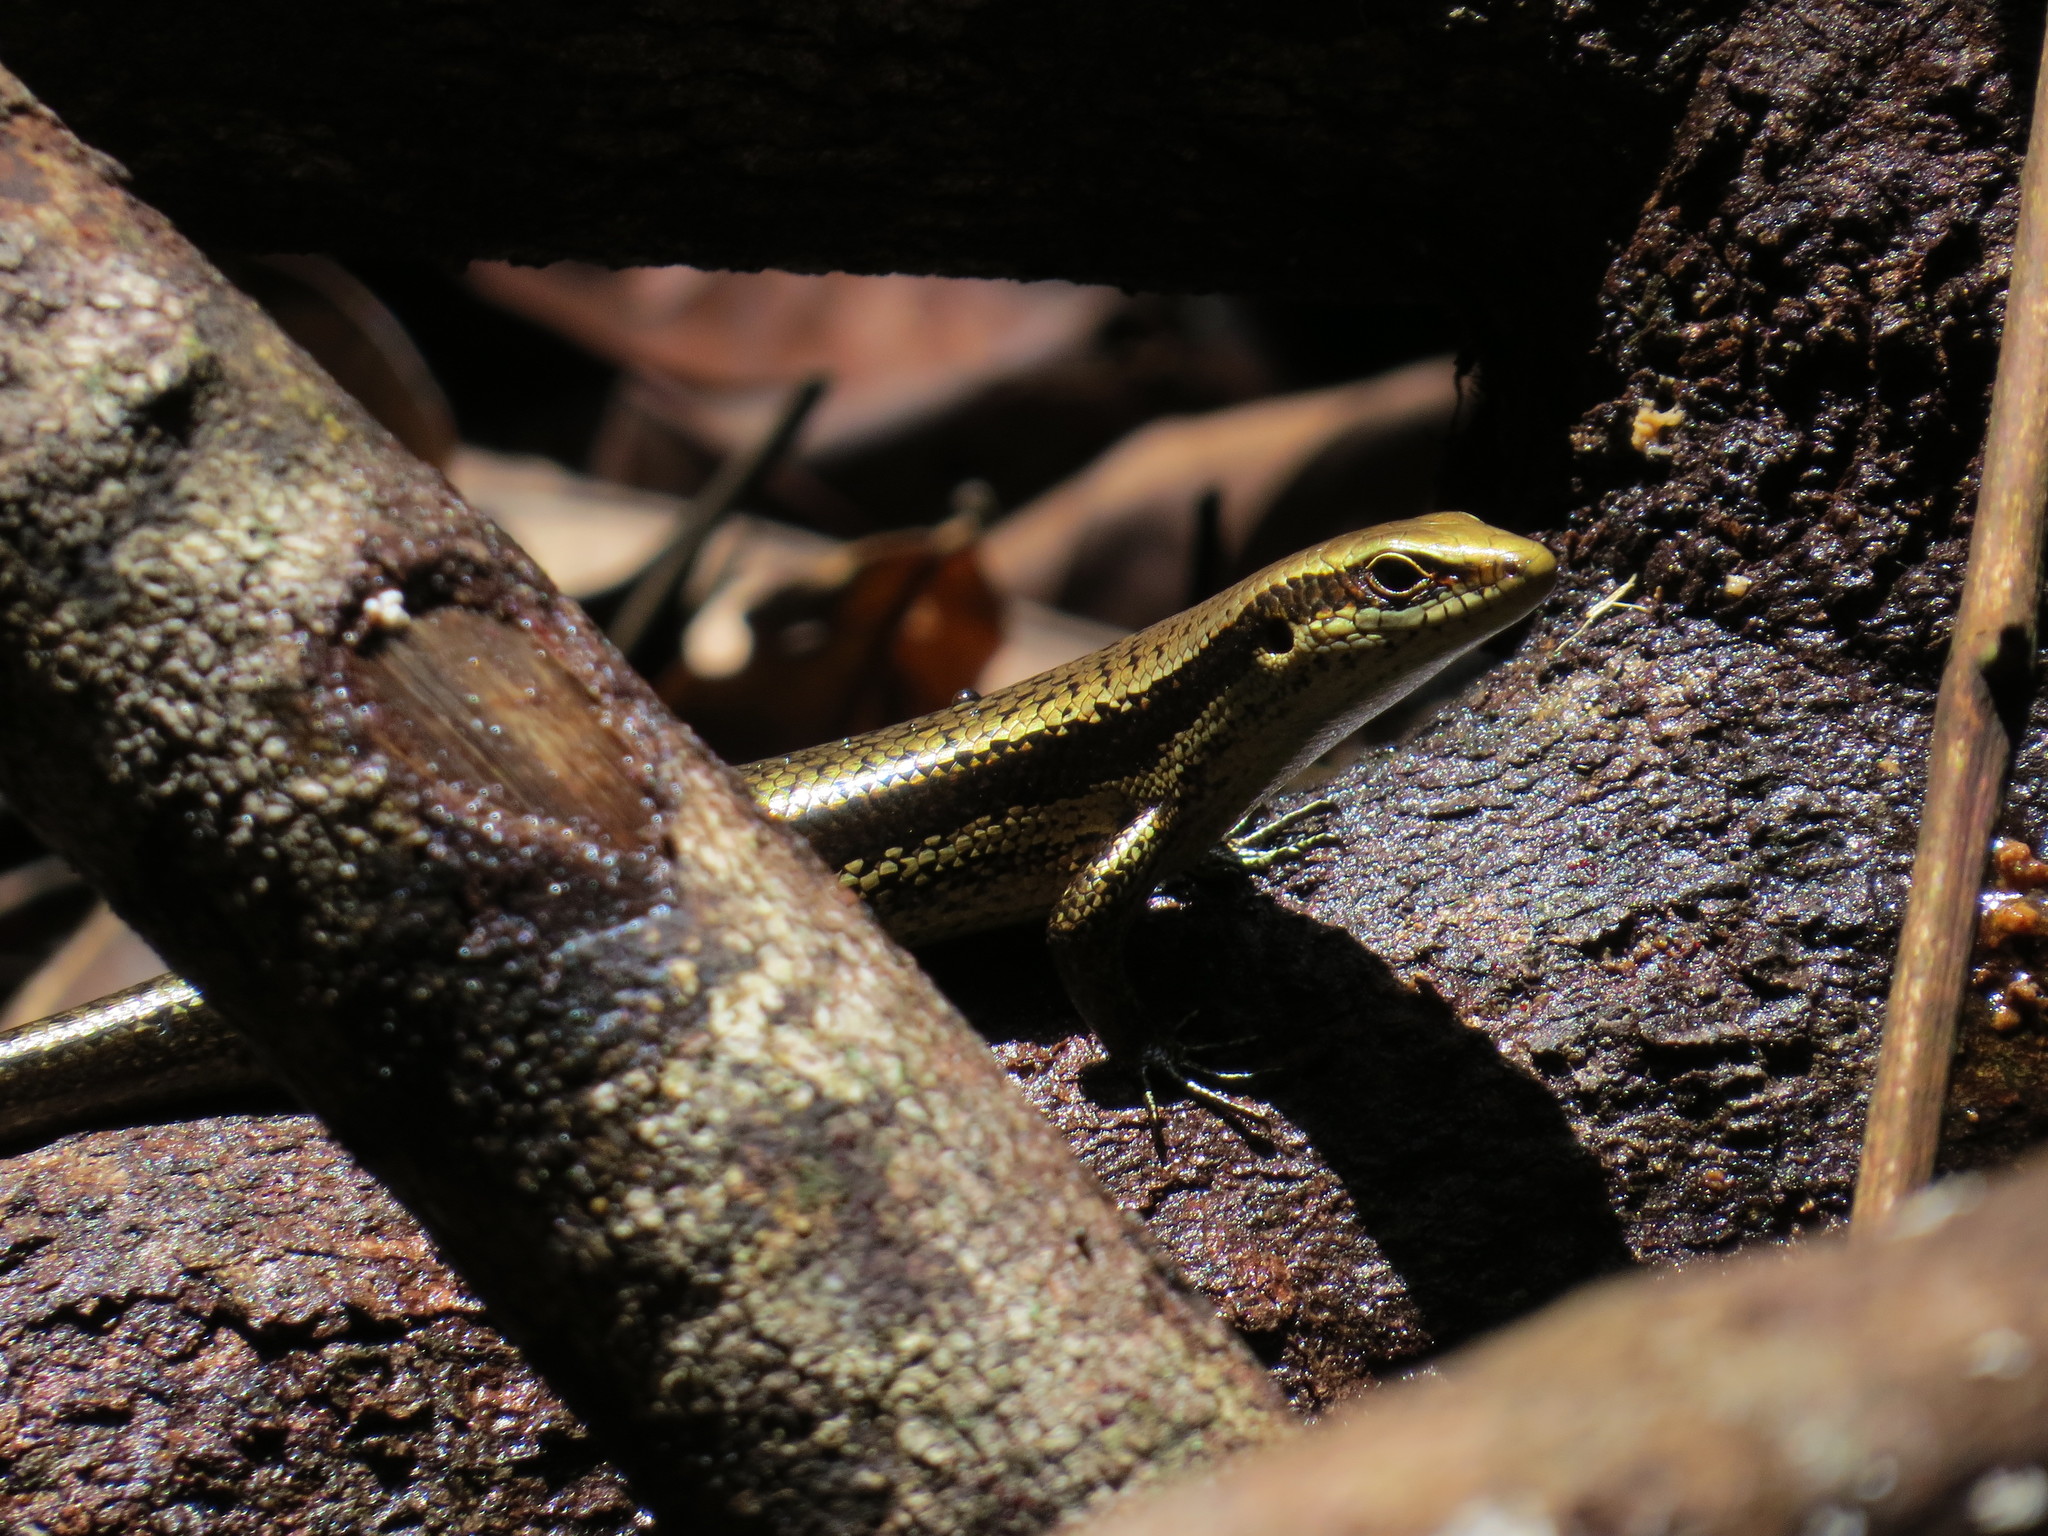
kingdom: Animalia
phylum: Chordata
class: Squamata
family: Scincidae
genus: Copeoglossum
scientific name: Copeoglossum nigropunctatum
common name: Black-spotted skink
